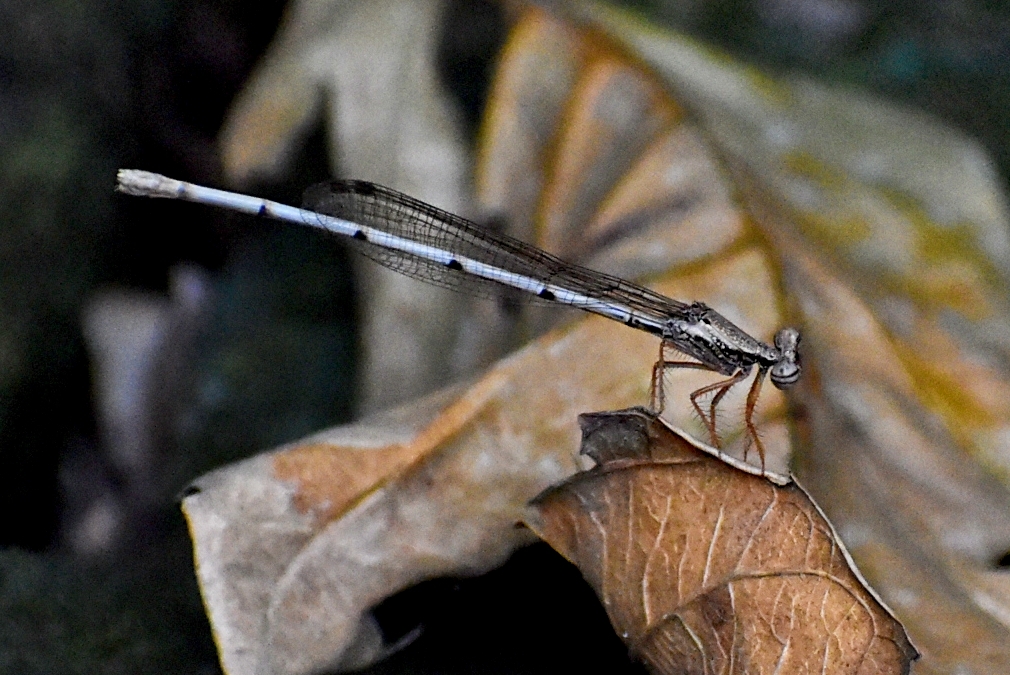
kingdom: Animalia
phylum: Arthropoda
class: Insecta
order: Odonata
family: Platycnemididae
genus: Copera
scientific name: Copera marginipes
